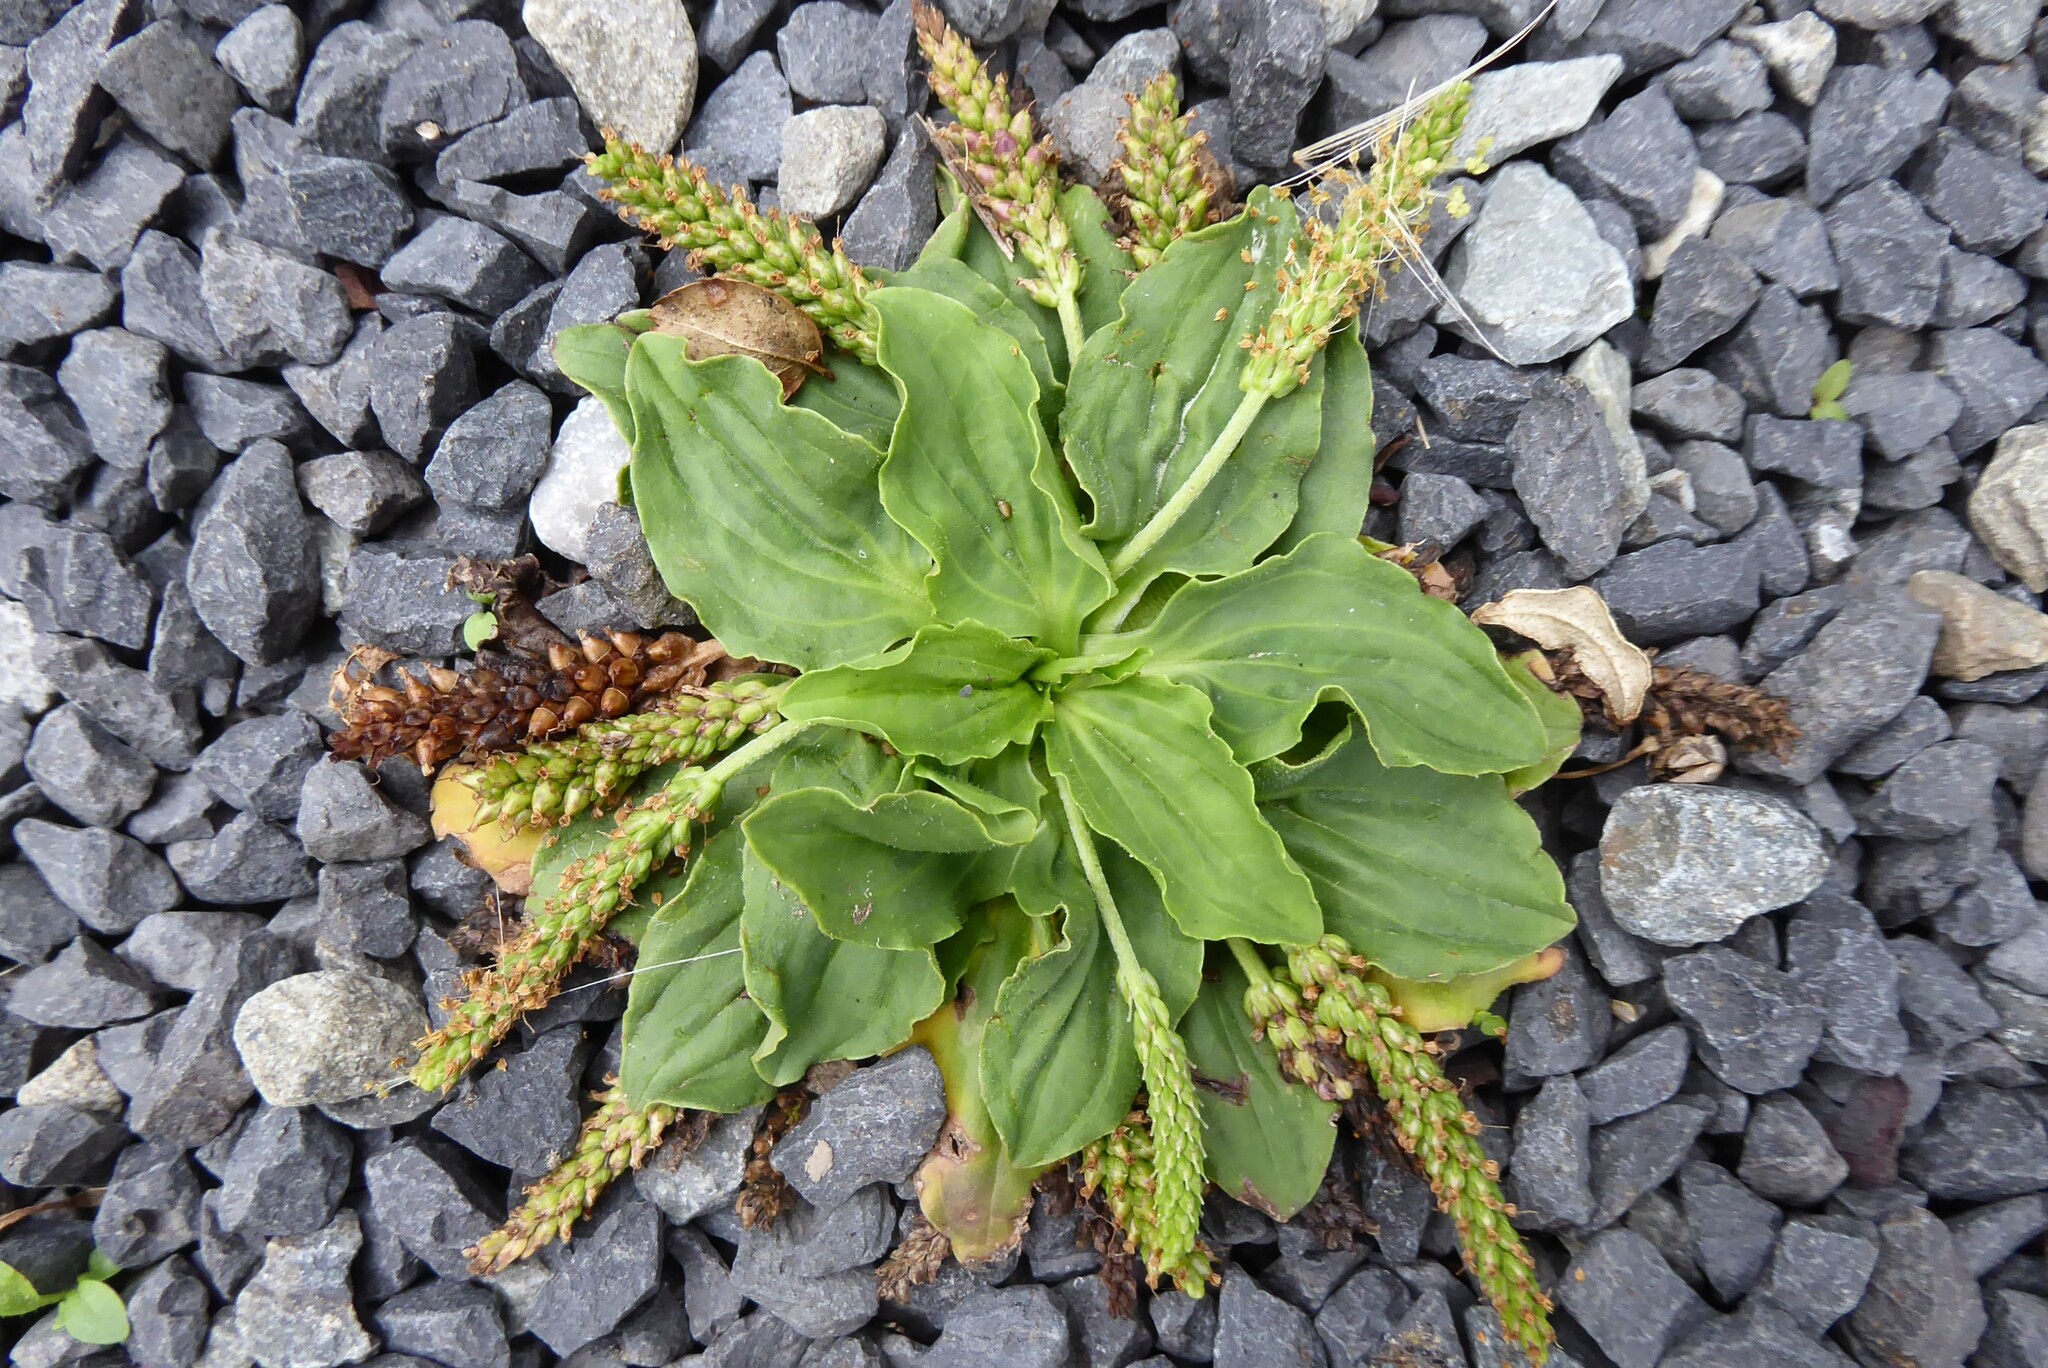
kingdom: Plantae
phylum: Tracheophyta
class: Magnoliopsida
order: Lamiales
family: Plantaginaceae
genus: Plantago
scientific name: Plantago major
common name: Common plantain
